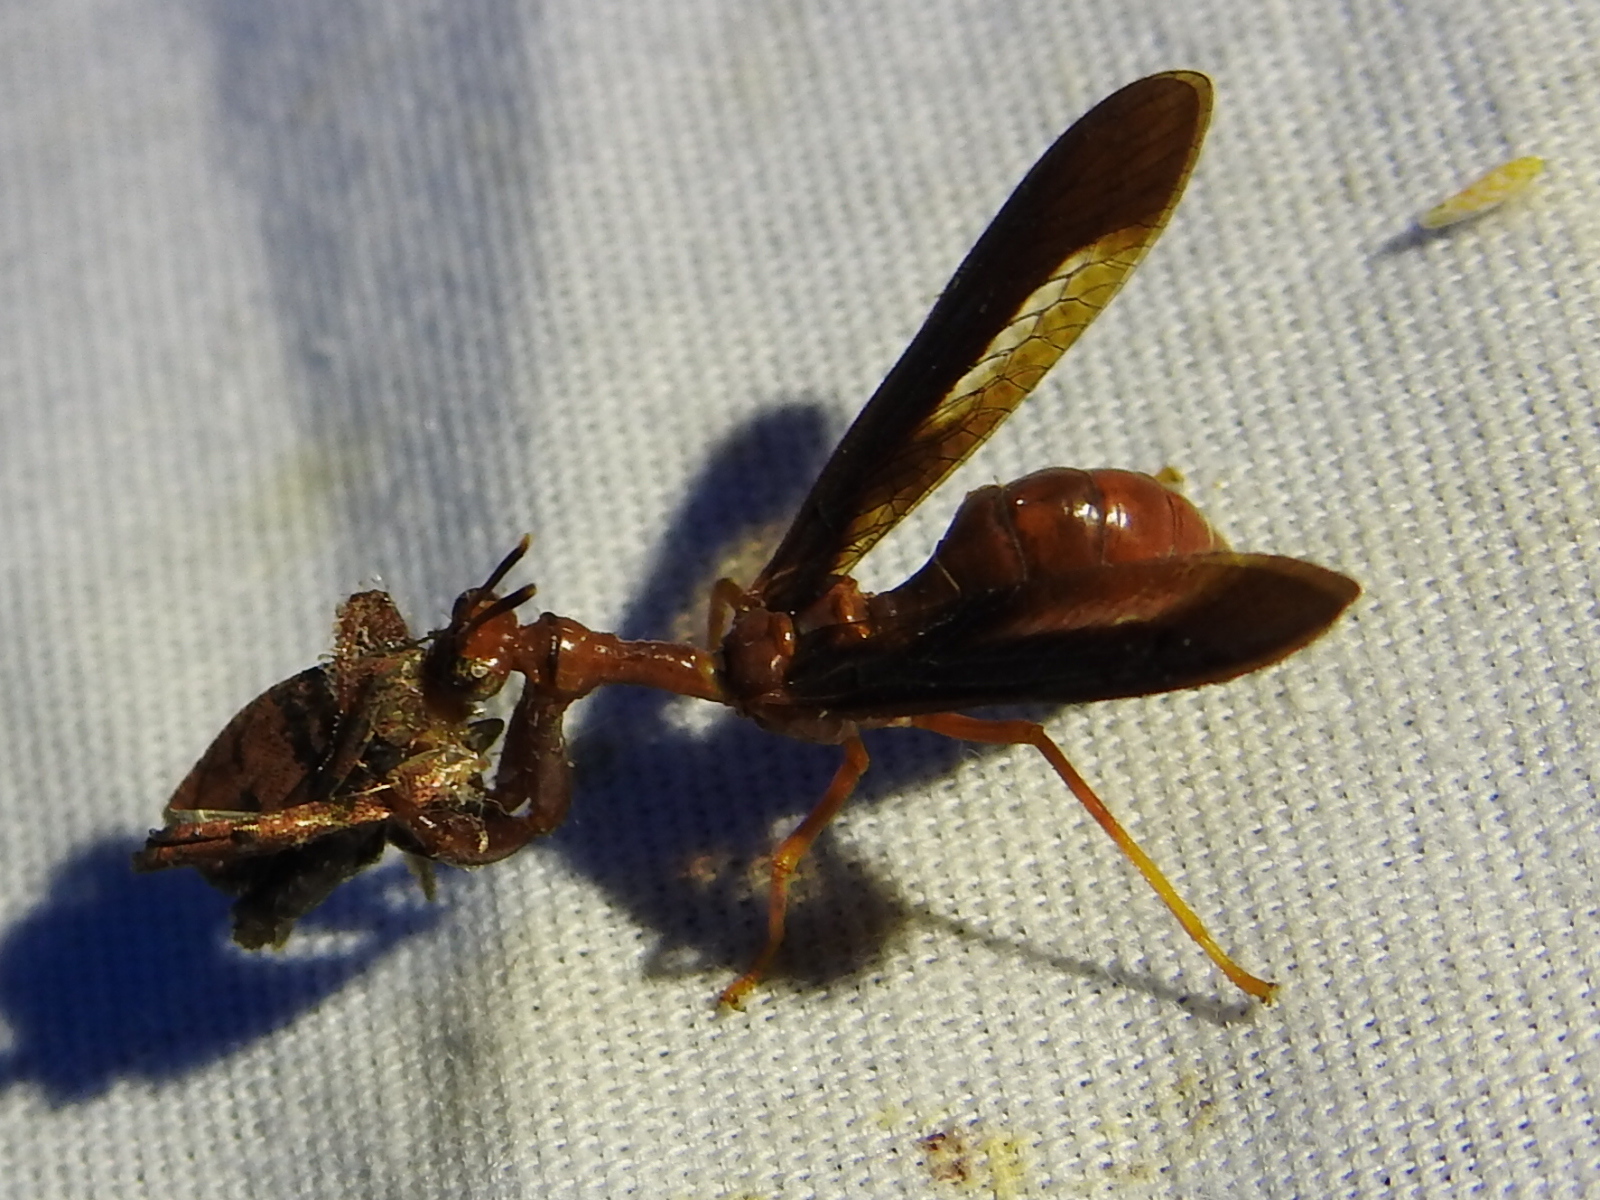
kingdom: Animalia
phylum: Arthropoda
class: Insecta
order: Neuroptera
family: Mantispidae
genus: Climaciella
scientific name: Climaciella brunnea
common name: Brown wasp mantidfly
